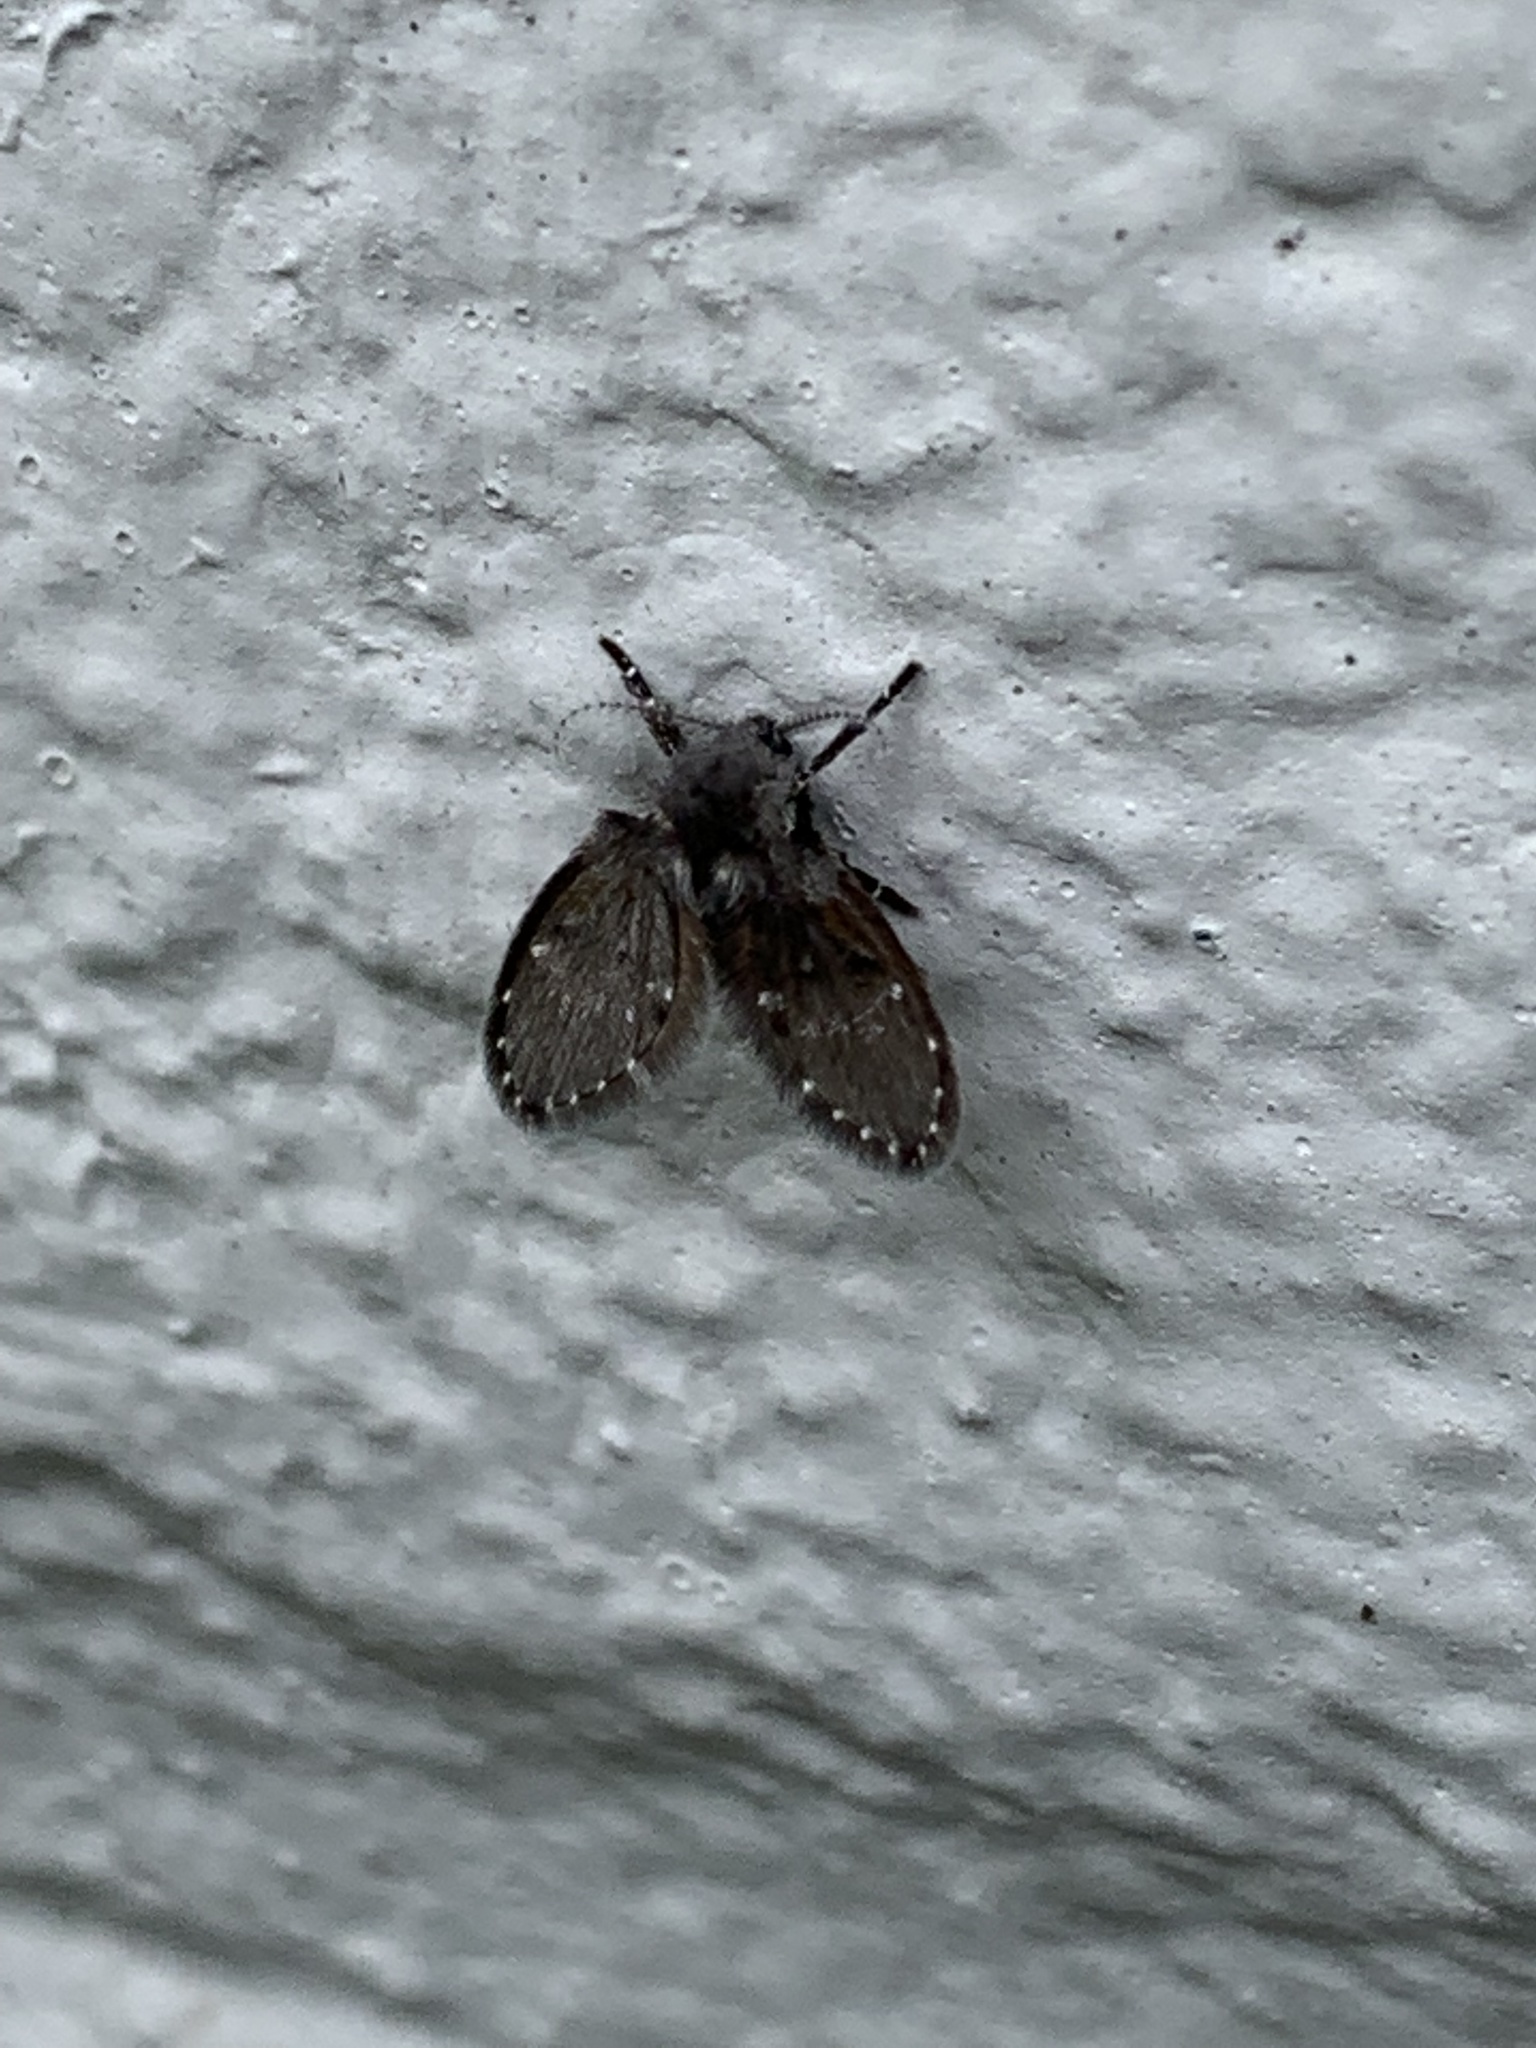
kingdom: Animalia
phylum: Arthropoda
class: Insecta
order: Diptera
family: Psychodidae
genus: Clogmia
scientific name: Clogmia albipunctatus
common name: White-spotted moth fly
